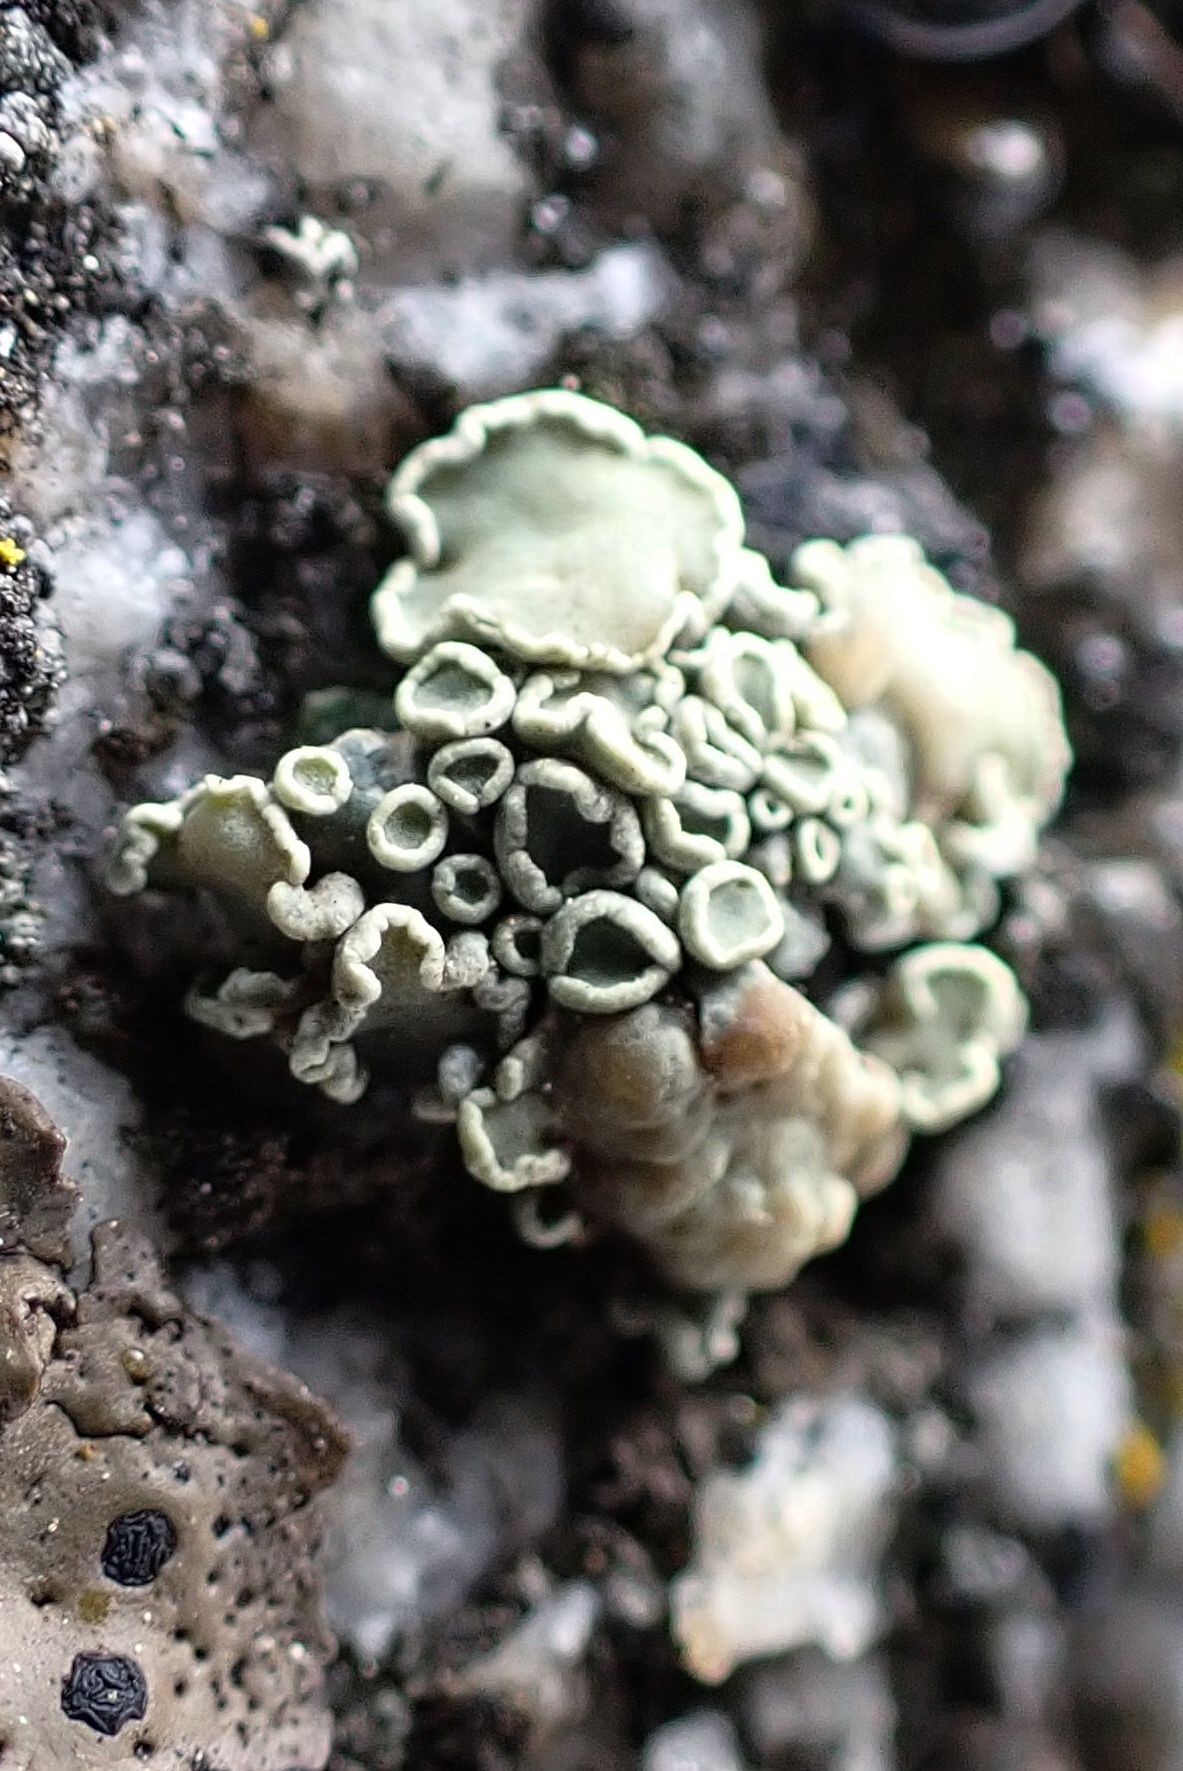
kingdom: Fungi
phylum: Ascomycota
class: Lecanoromycetes
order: Lecanorales
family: Lecanoraceae
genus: Rhizoplaca
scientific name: Rhizoplaca melanophthalma
